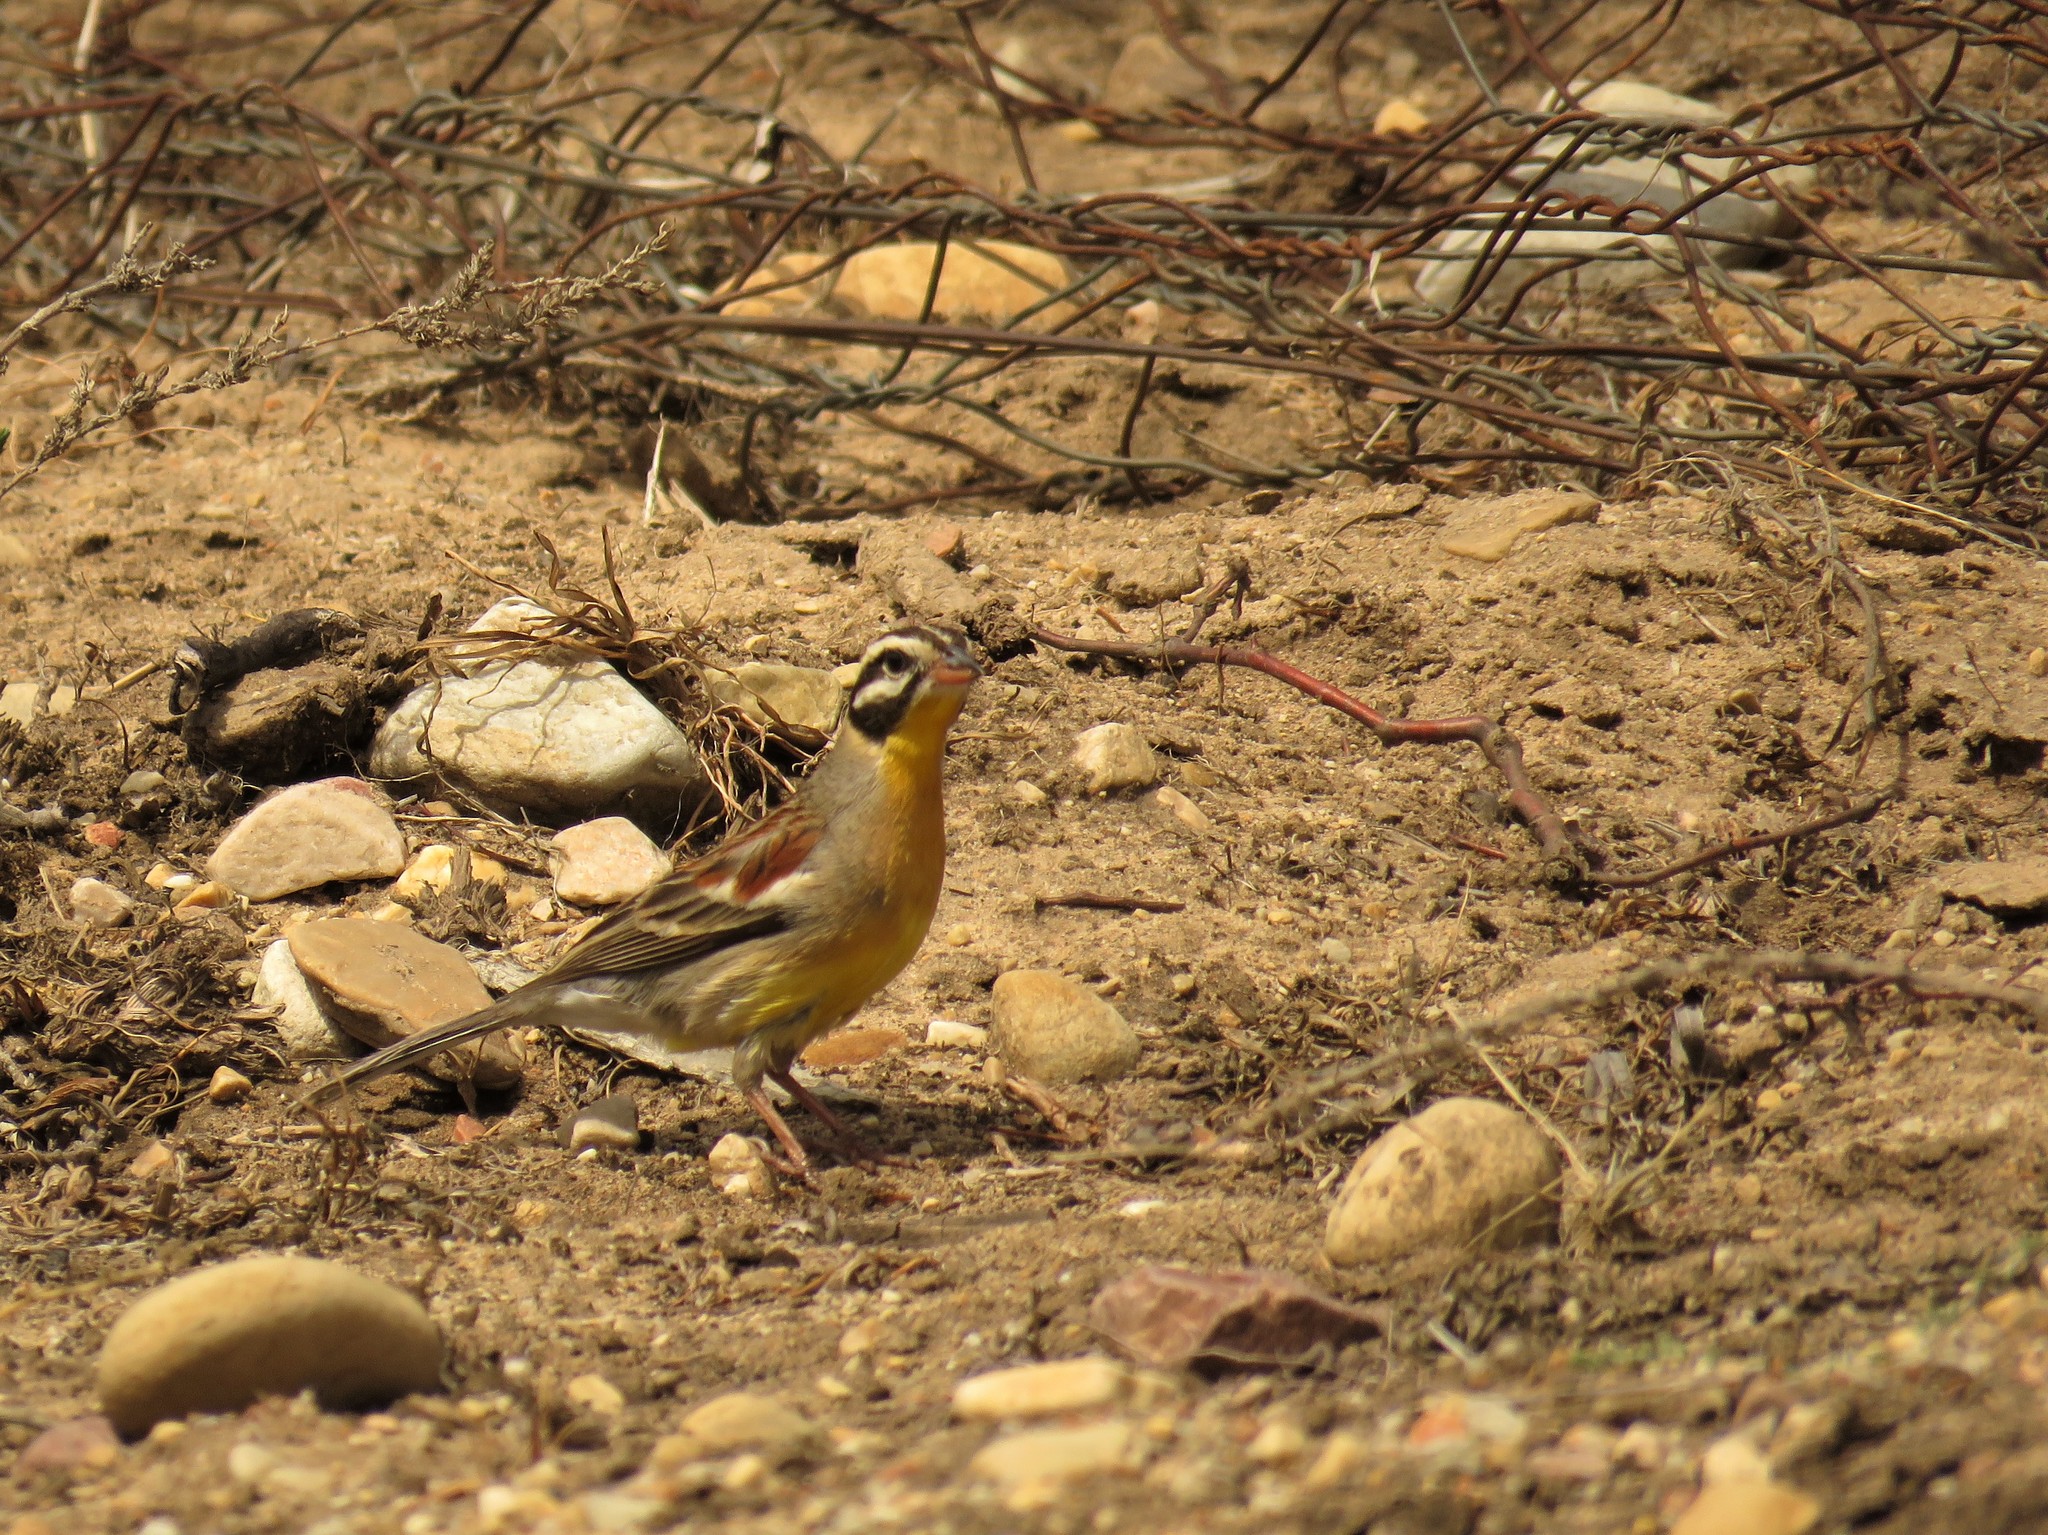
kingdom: Animalia
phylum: Chordata
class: Aves
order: Passeriformes
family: Emberizidae
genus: Emberiza
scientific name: Emberiza flaviventris
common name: Golden-breasted bunting
